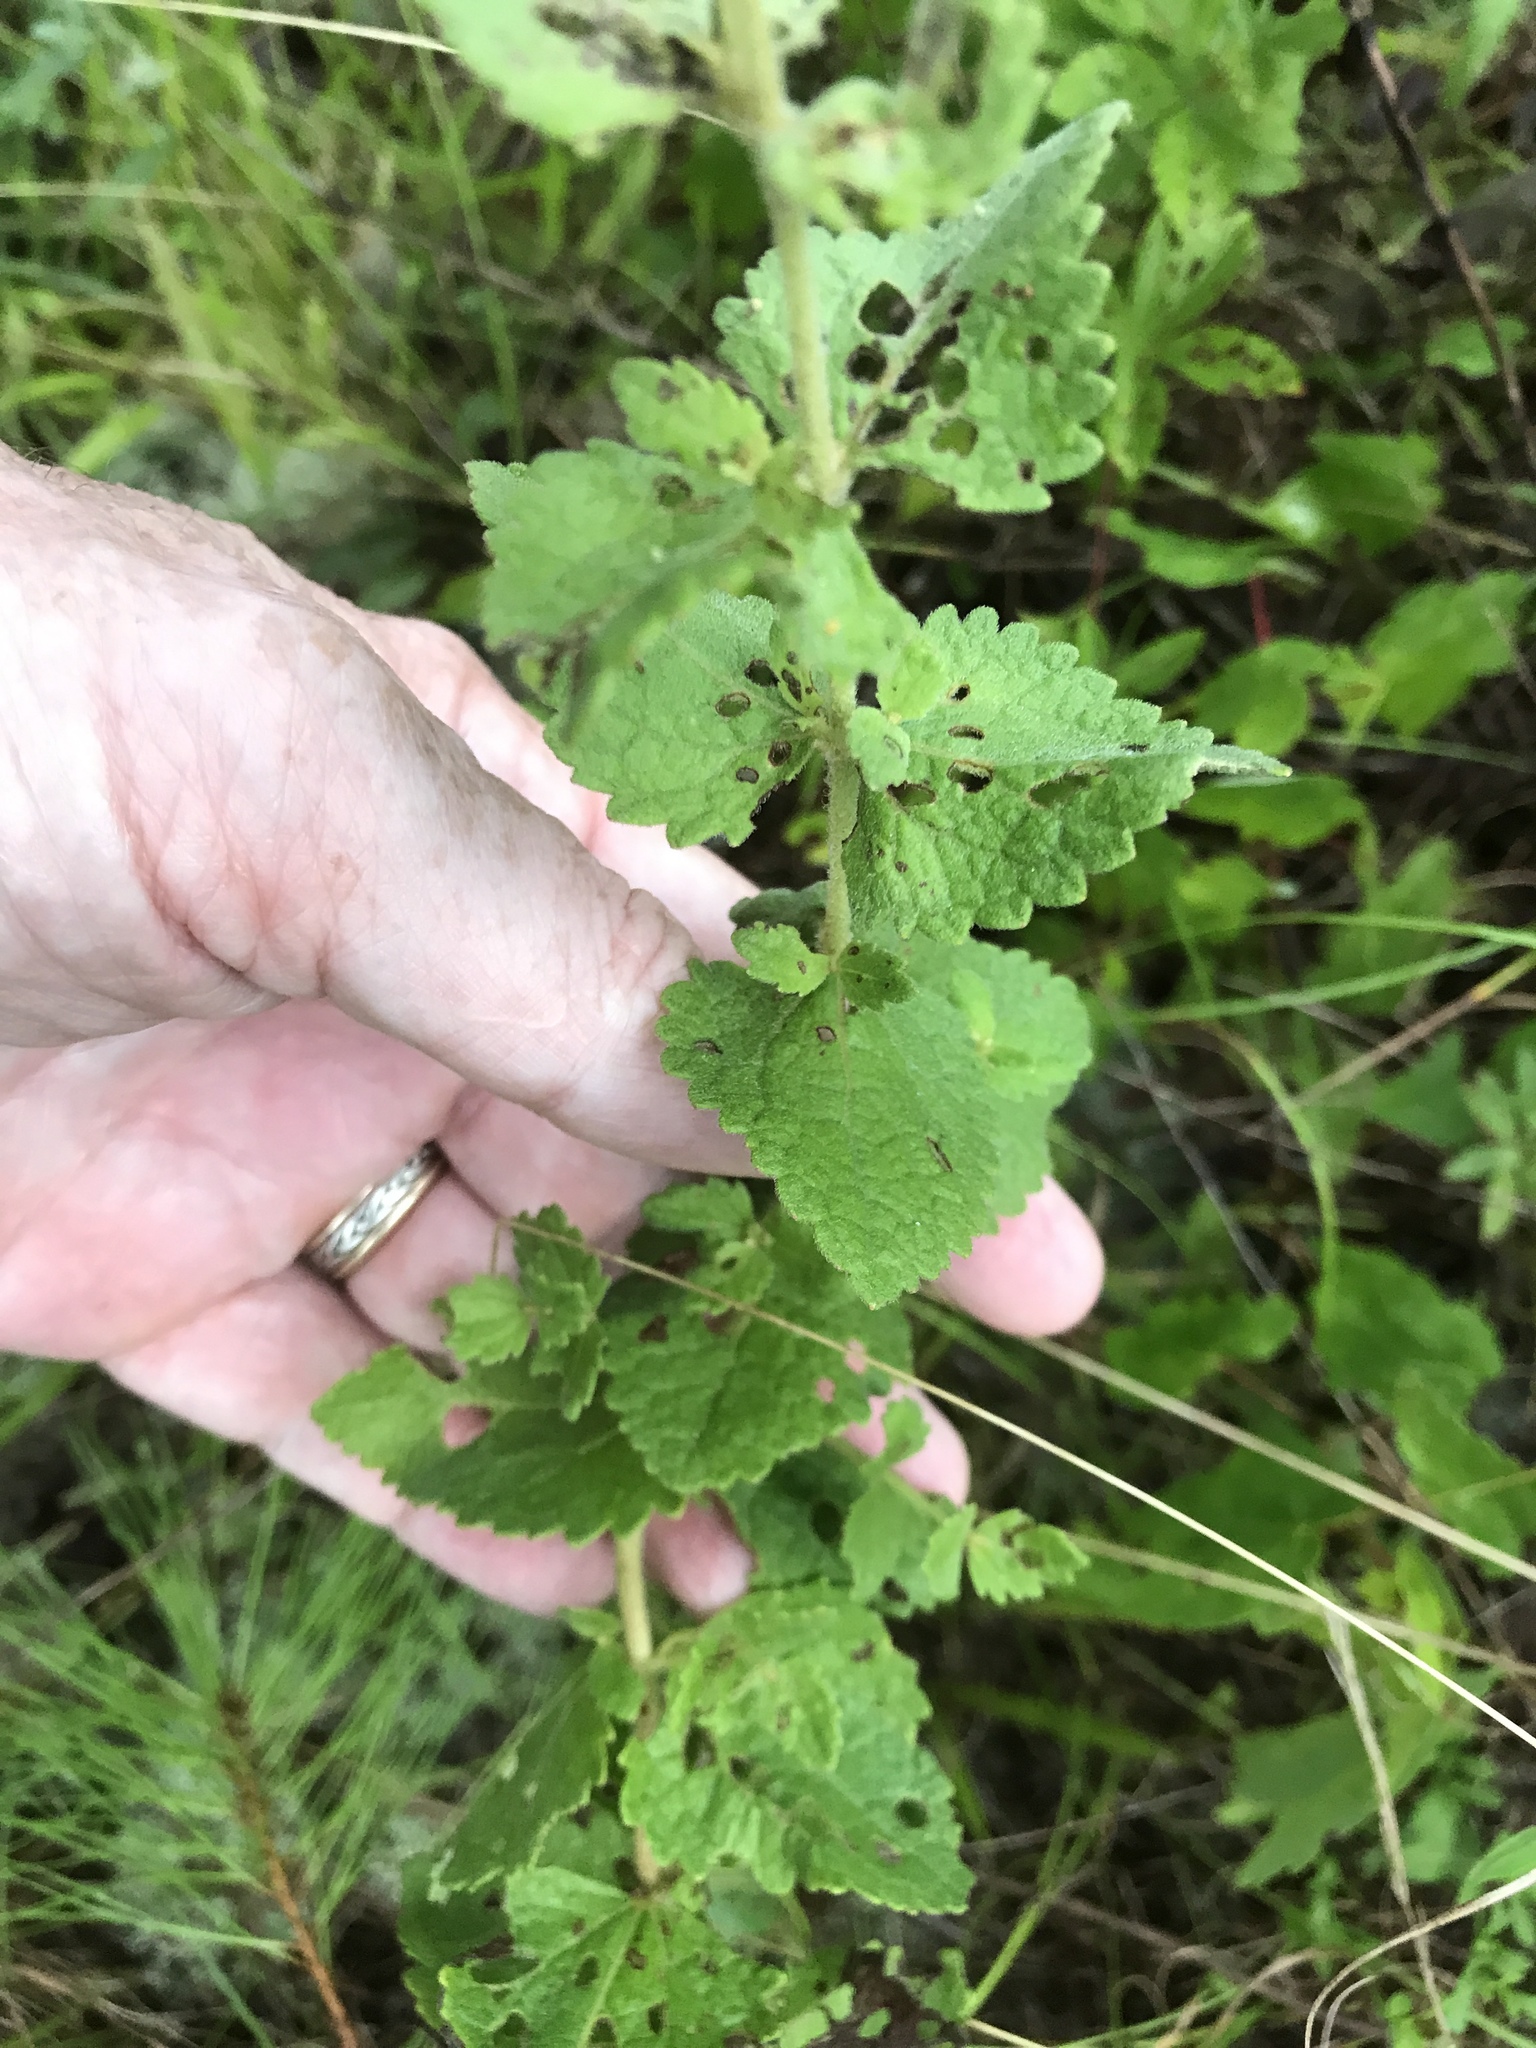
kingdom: Plantae
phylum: Tracheophyta
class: Magnoliopsida
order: Asterales
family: Asteraceae
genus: Eupatorium
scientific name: Eupatorium rotundifolium
